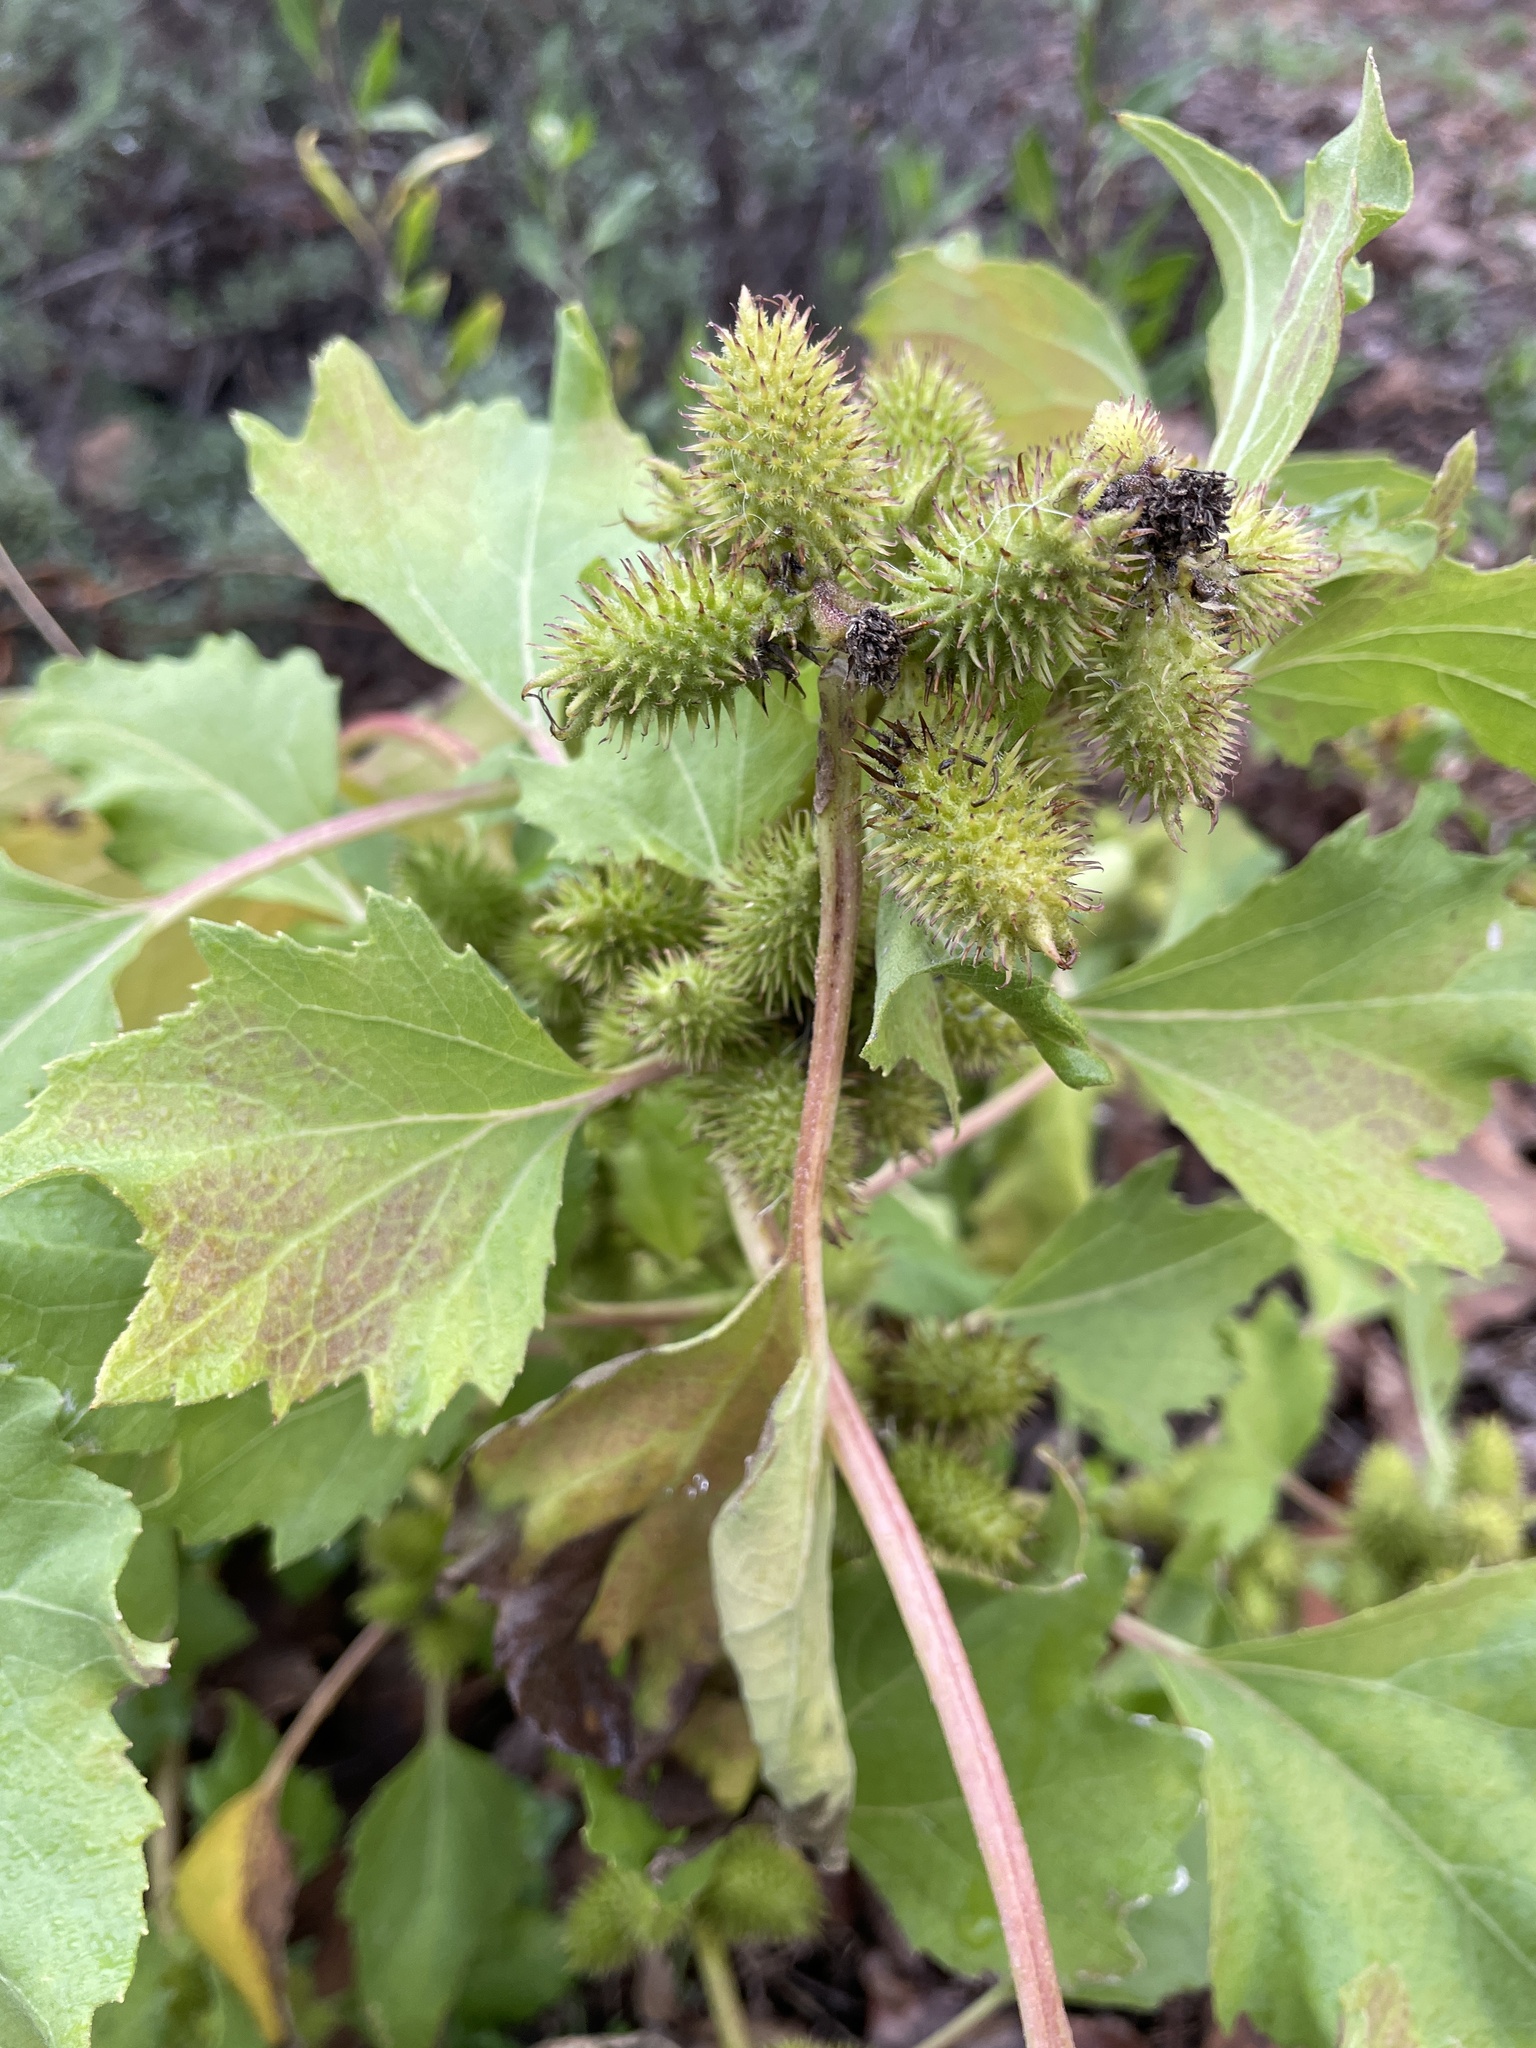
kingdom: Plantae
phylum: Tracheophyta
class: Magnoliopsida
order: Asterales
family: Asteraceae
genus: Xanthium
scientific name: Xanthium strumarium
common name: Rough cocklebur
